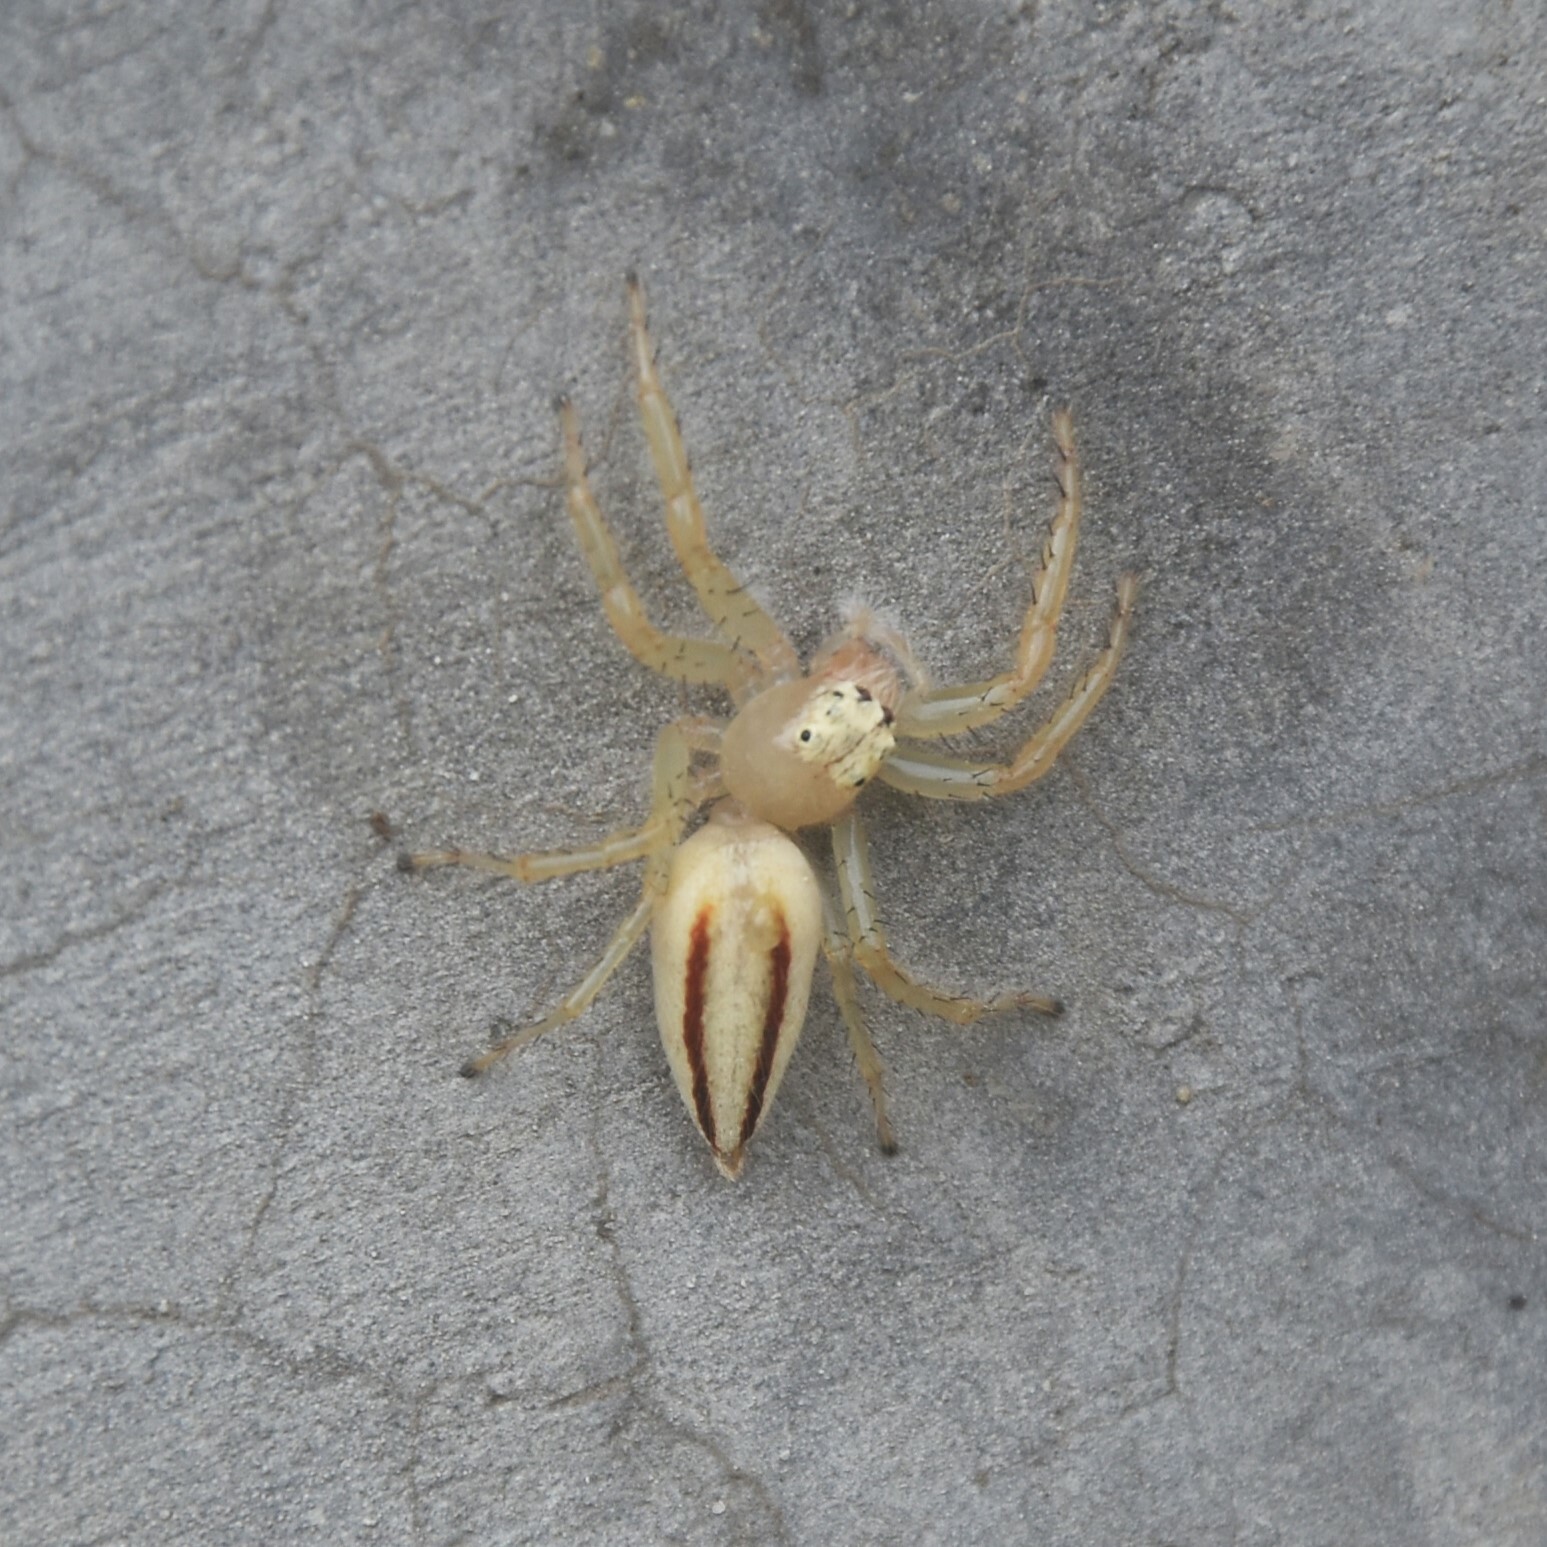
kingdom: Animalia
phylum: Arthropoda
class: Arachnida
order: Araneae
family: Salticidae
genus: Telamonia
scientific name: Telamonia dimidiata
